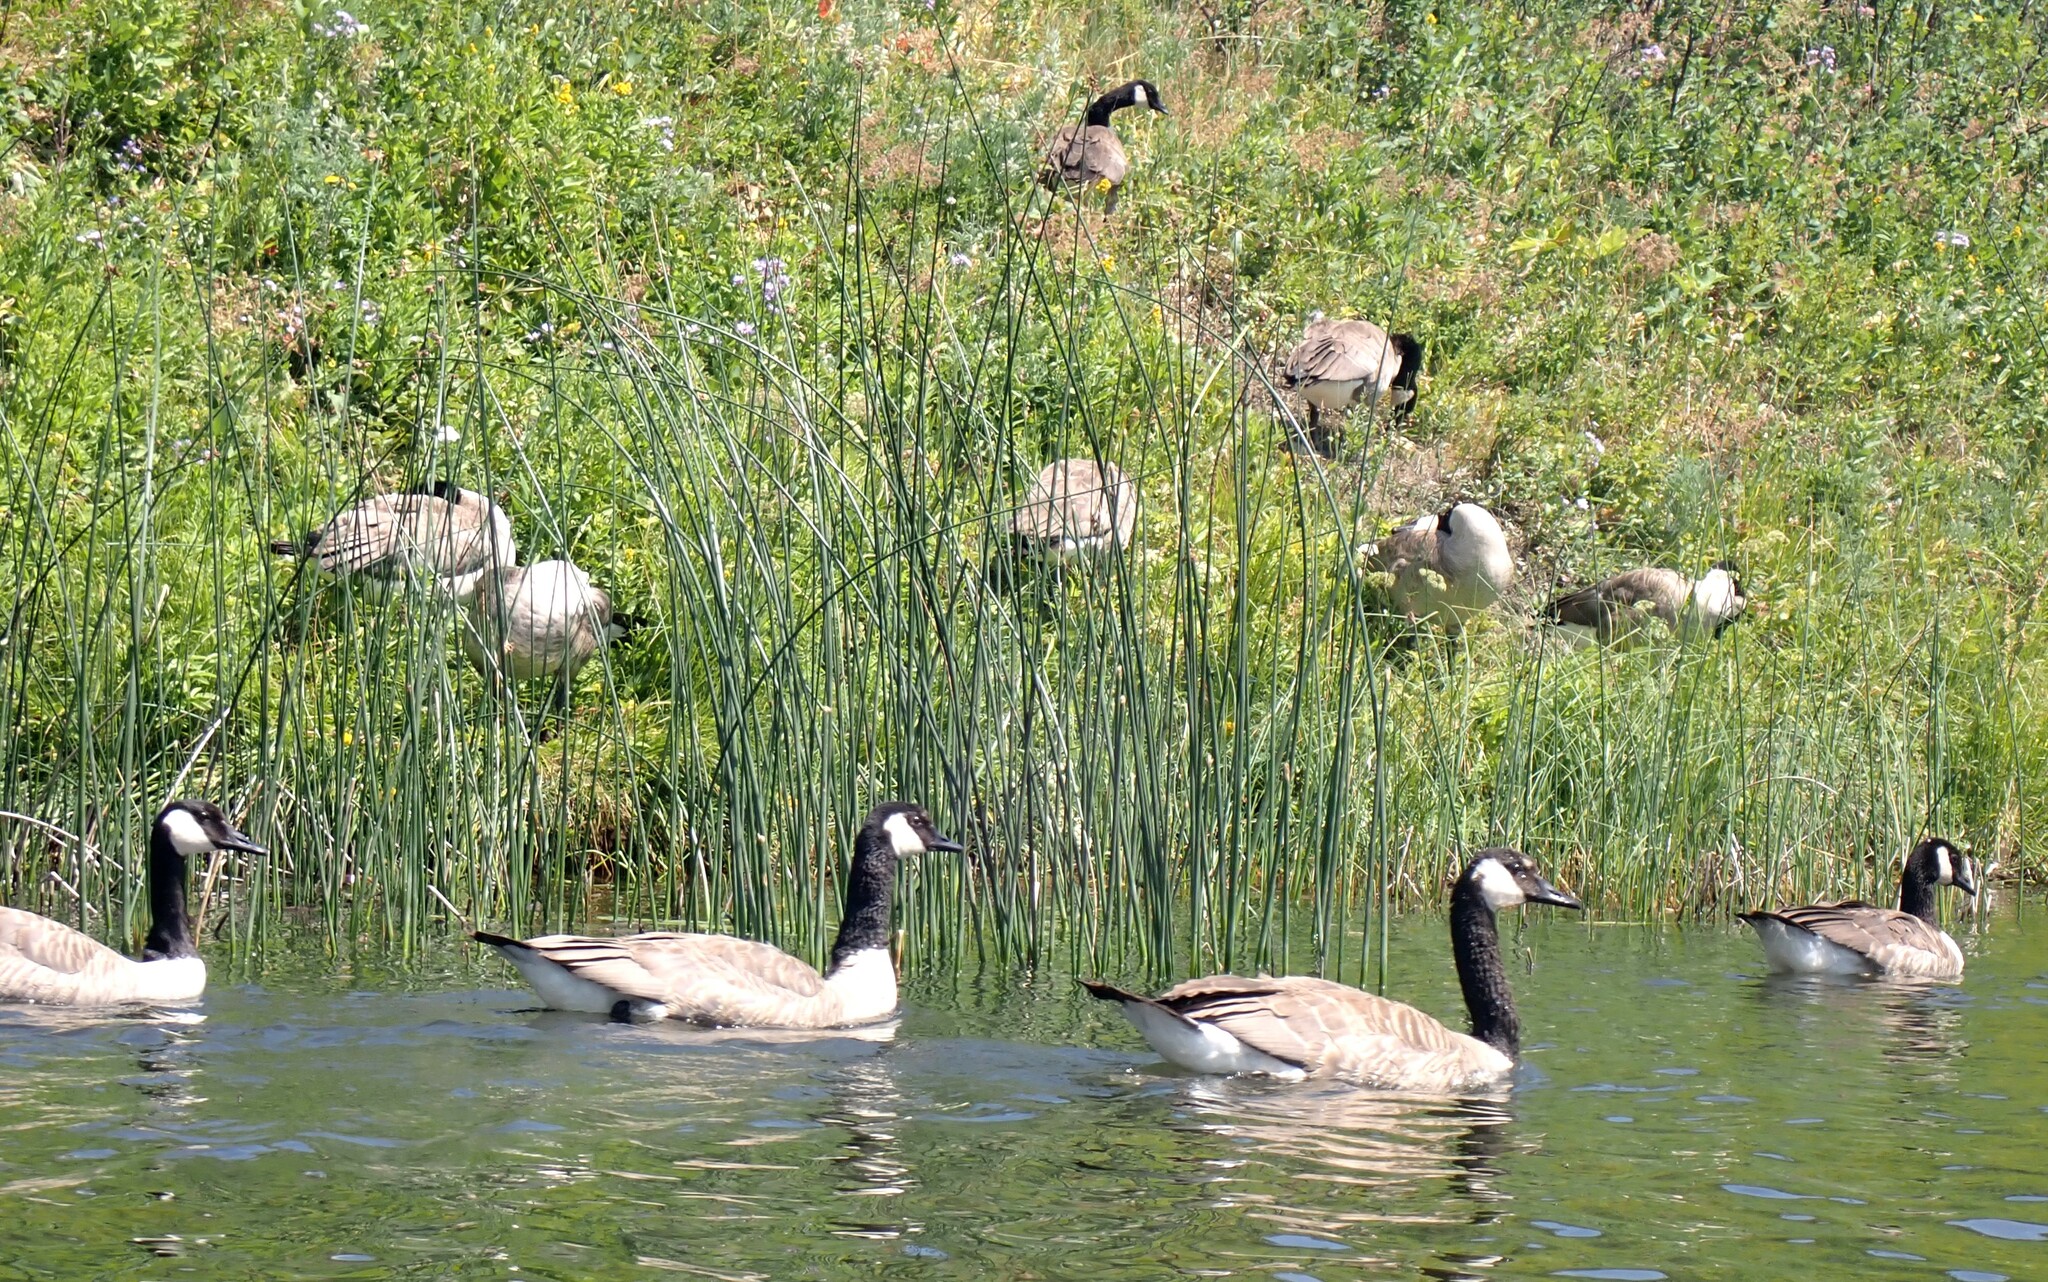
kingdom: Animalia
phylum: Chordata
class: Aves
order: Anseriformes
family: Anatidae
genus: Branta
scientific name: Branta canadensis
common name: Canada goose
